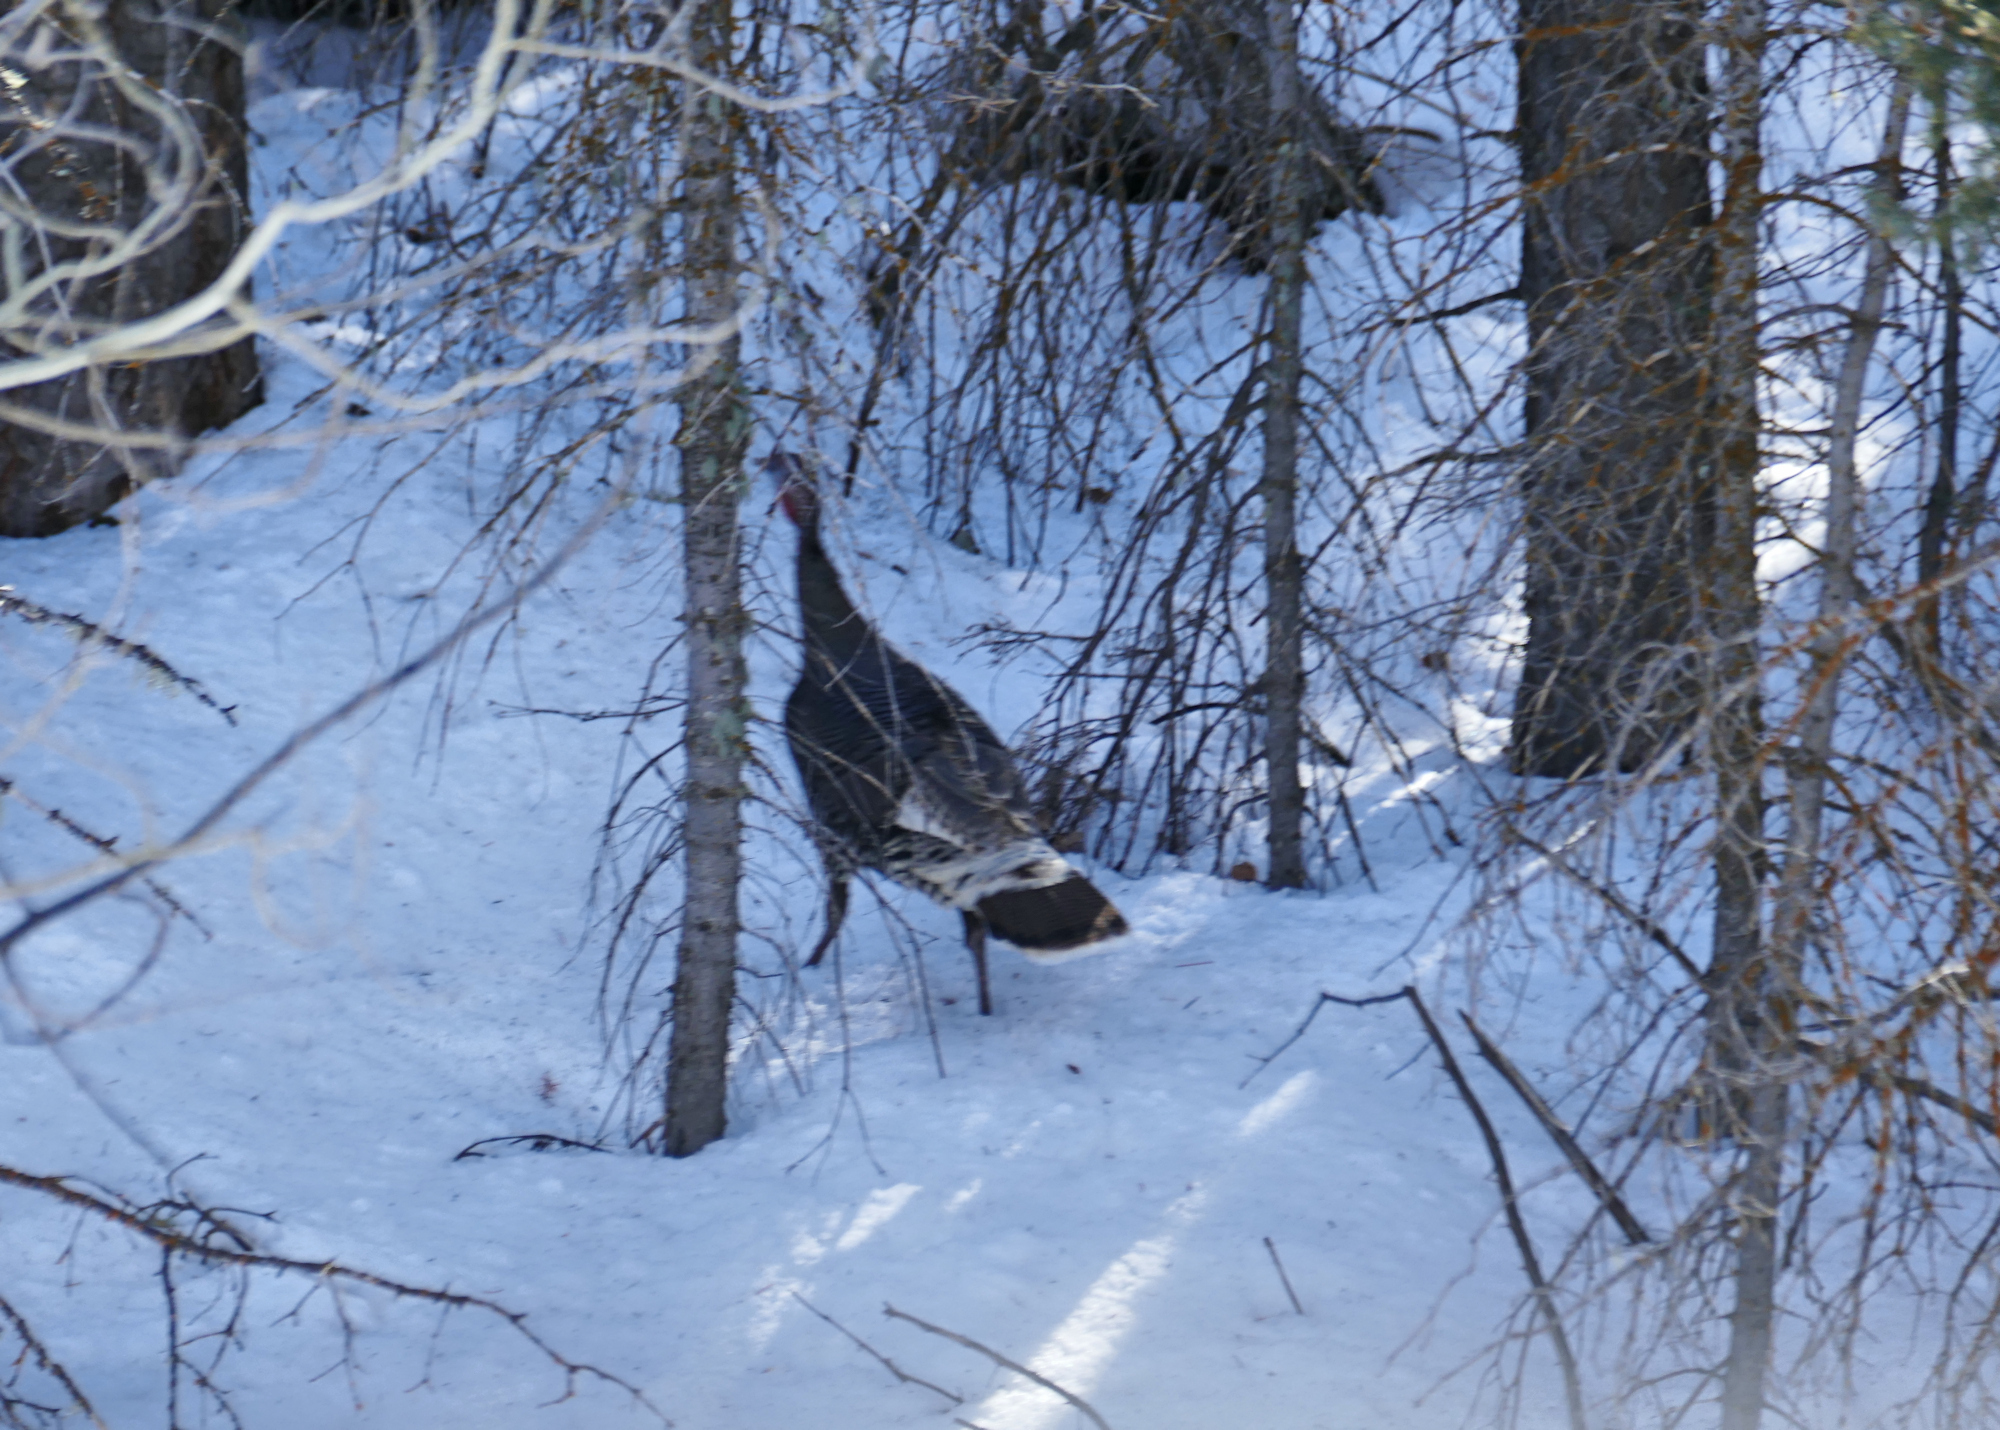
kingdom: Animalia
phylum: Chordata
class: Aves
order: Galliformes
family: Phasianidae
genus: Meleagris
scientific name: Meleagris gallopavo
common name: Wild turkey
